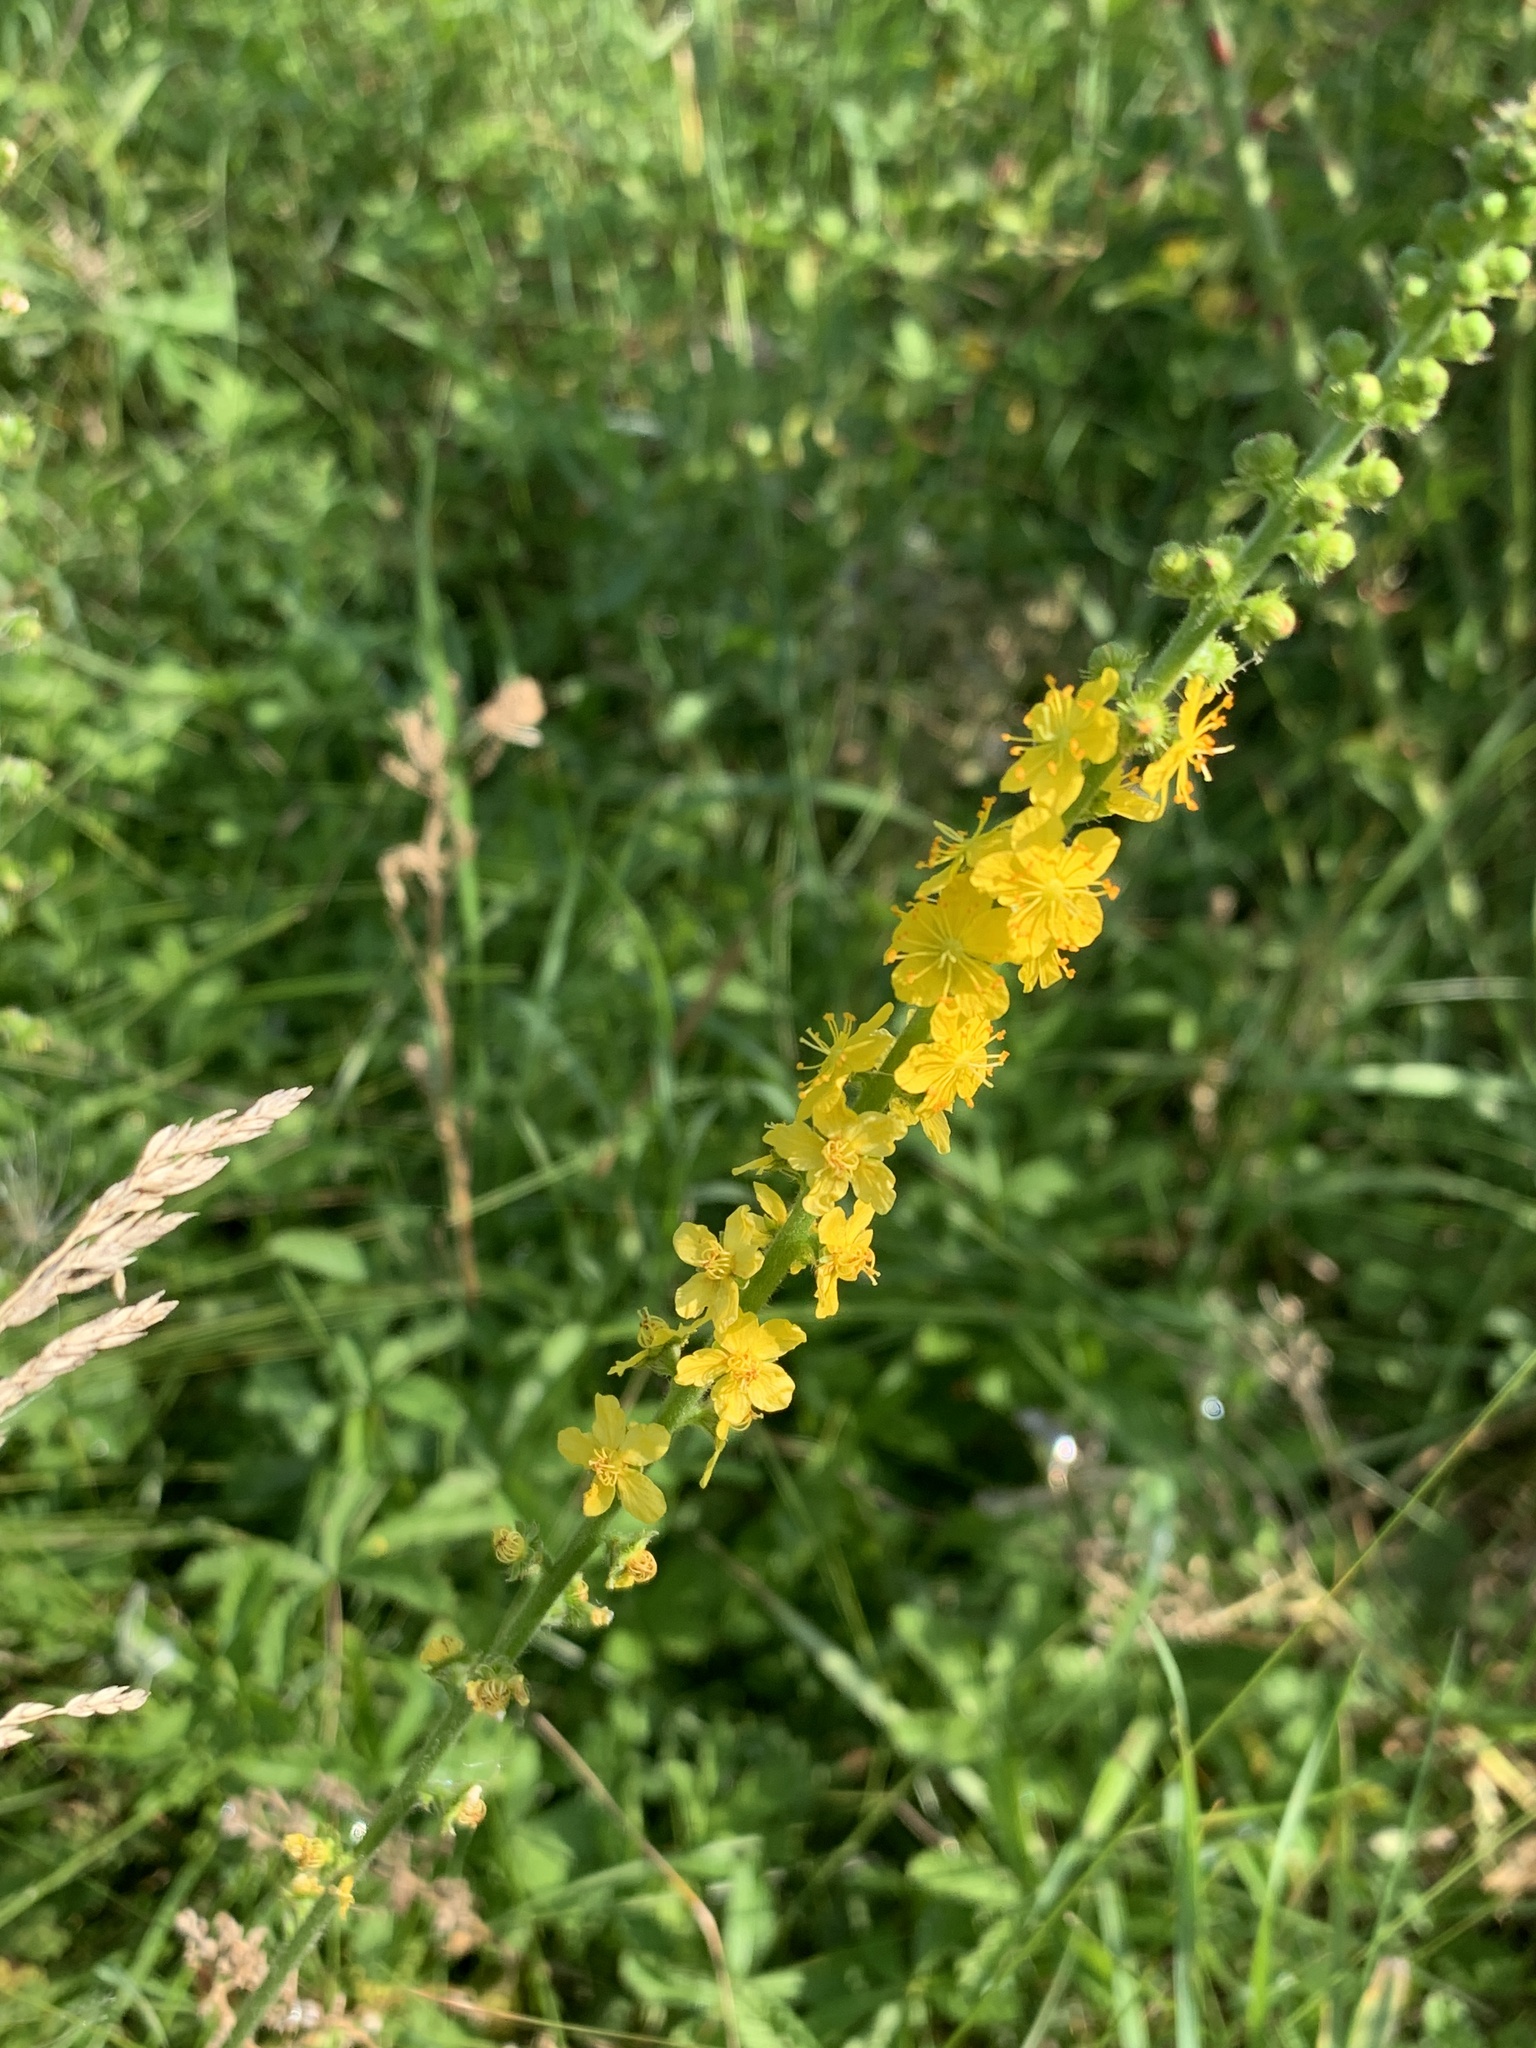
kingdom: Plantae
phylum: Tracheophyta
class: Magnoliopsida
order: Rosales
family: Rosaceae
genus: Agrimonia
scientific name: Agrimonia eupatoria
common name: Agrimony
